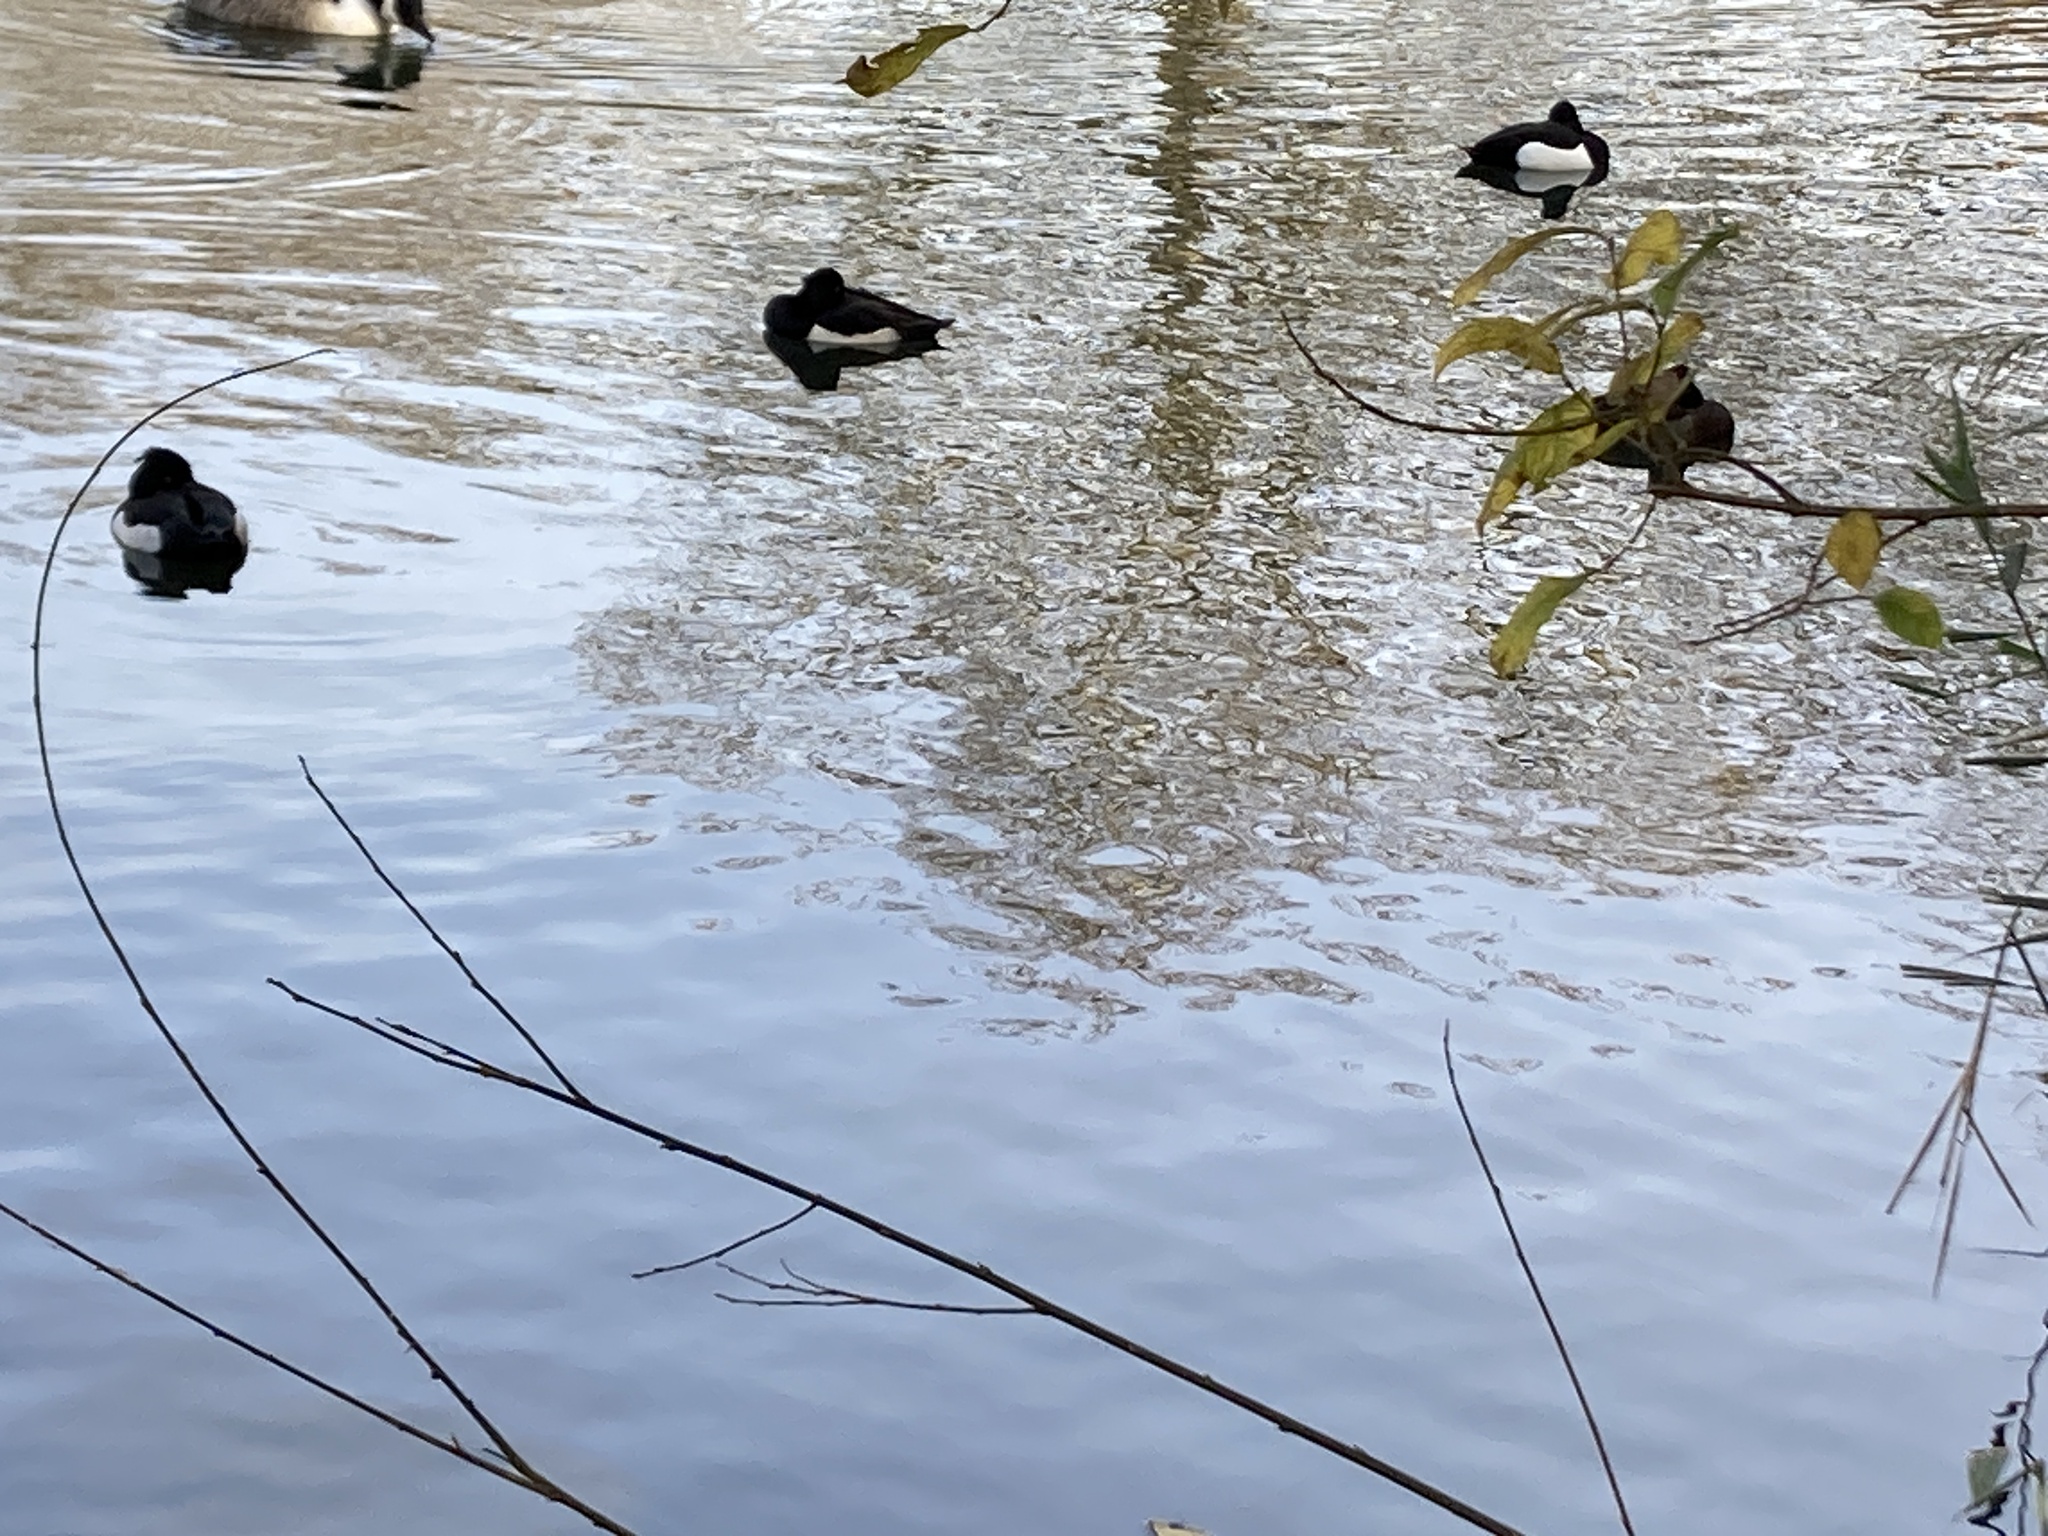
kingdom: Animalia
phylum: Chordata
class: Aves
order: Anseriformes
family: Anatidae
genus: Aythya
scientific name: Aythya fuligula
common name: Tufted duck
